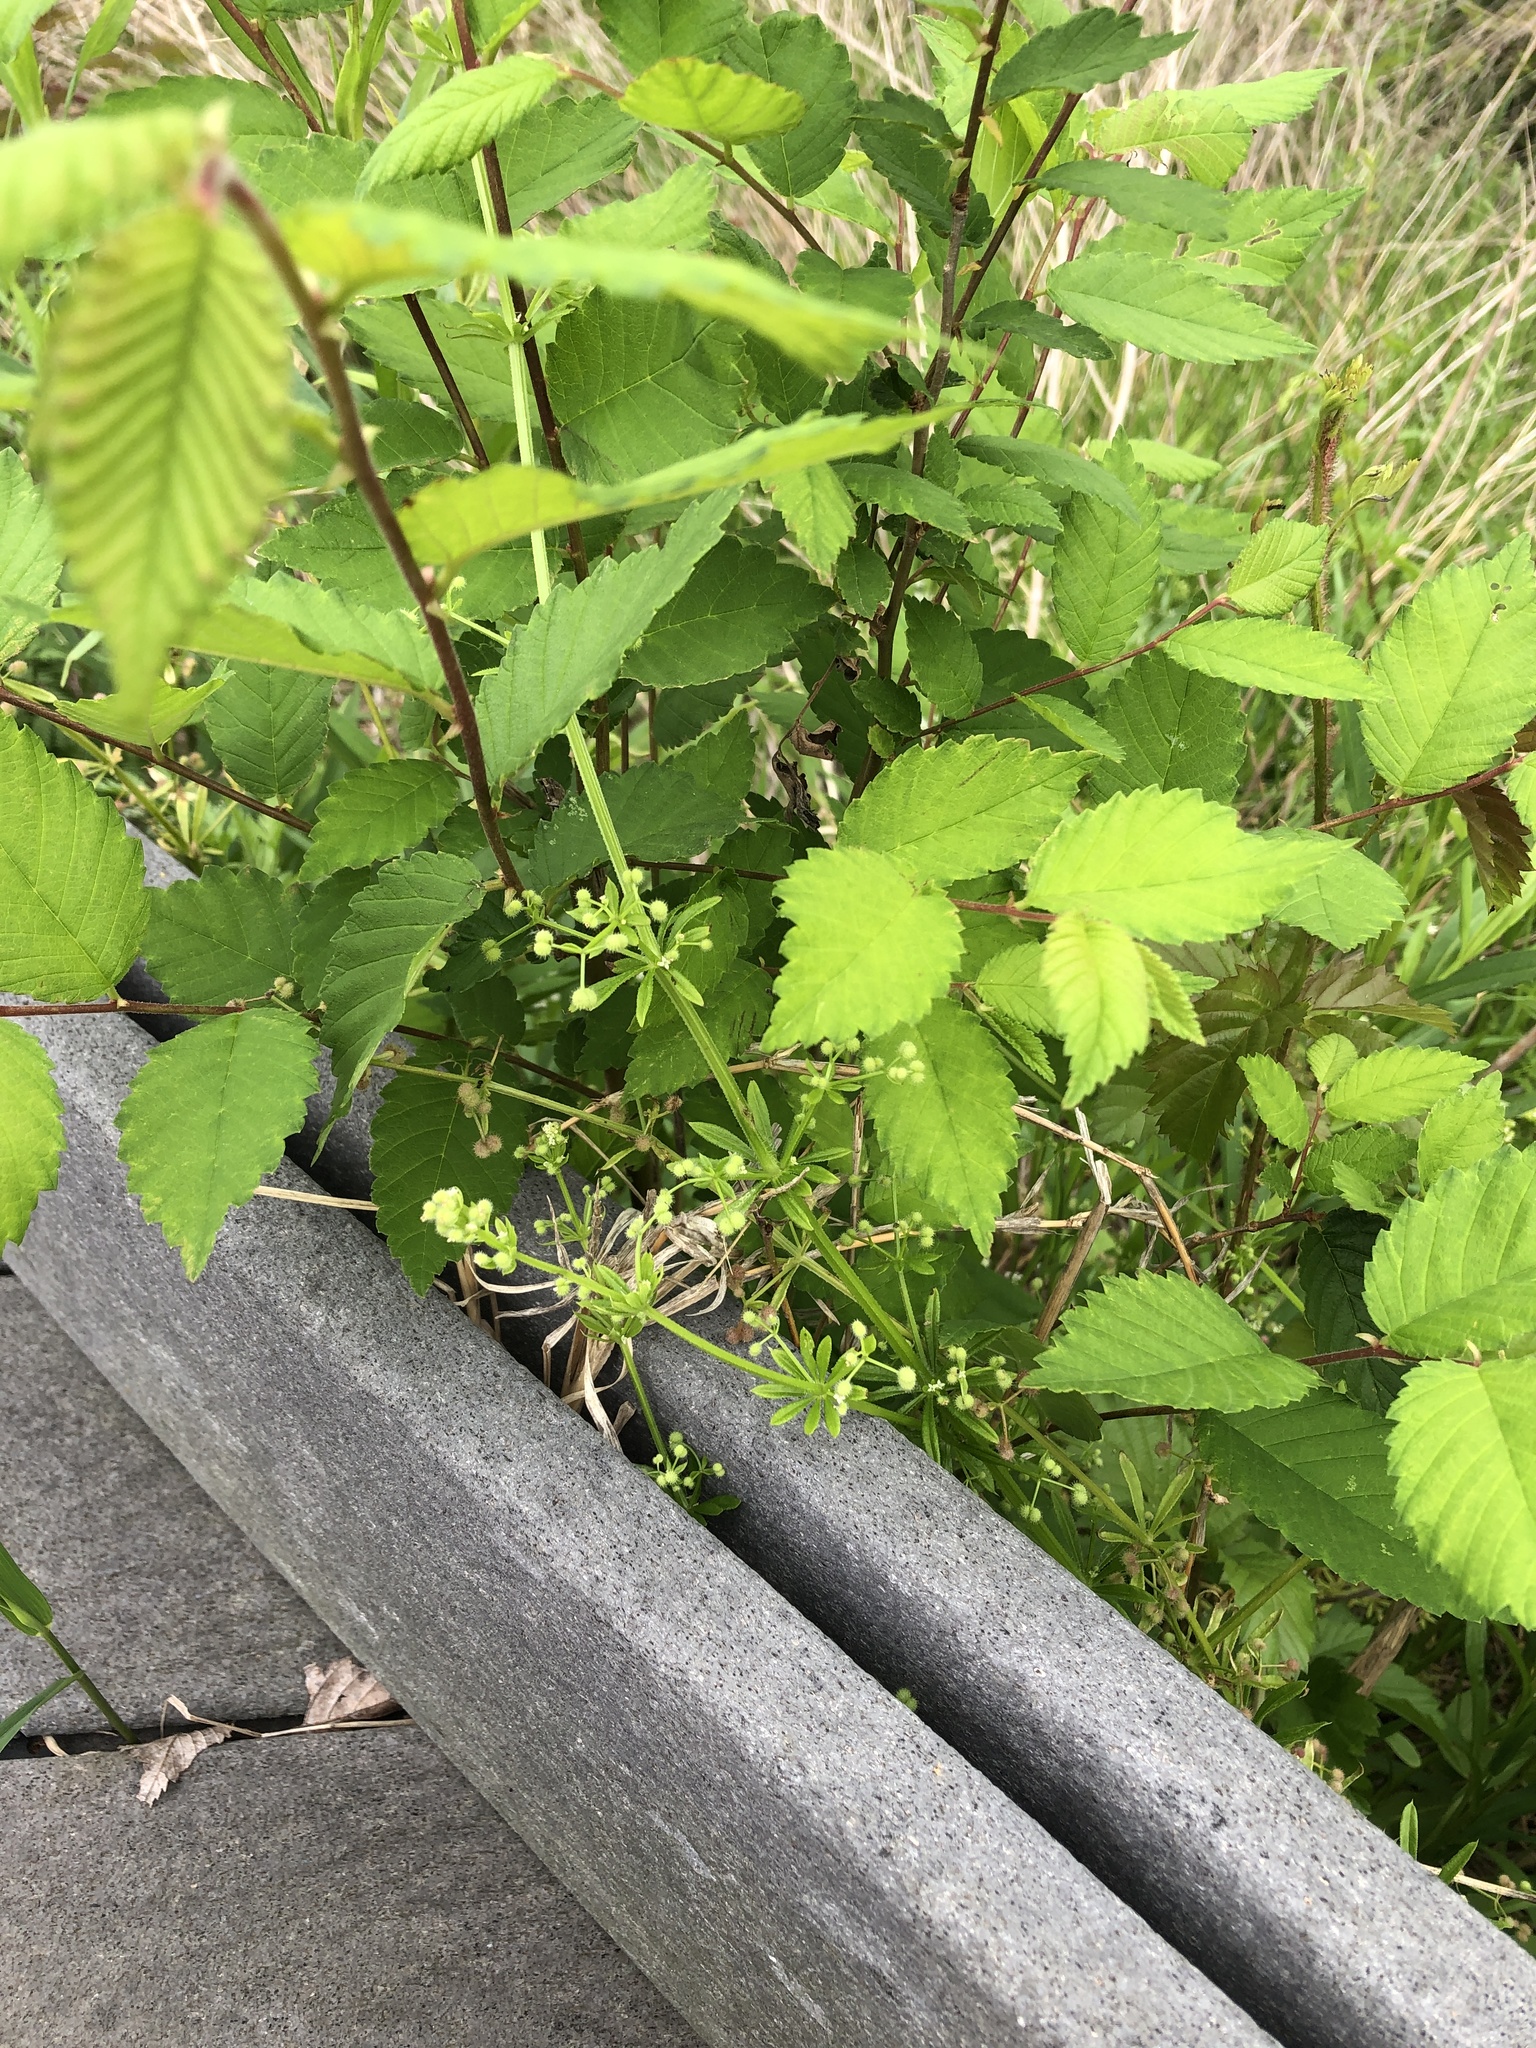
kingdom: Plantae
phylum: Tracheophyta
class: Magnoliopsida
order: Gentianales
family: Rubiaceae
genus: Galium
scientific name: Galium aparine
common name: Cleavers
